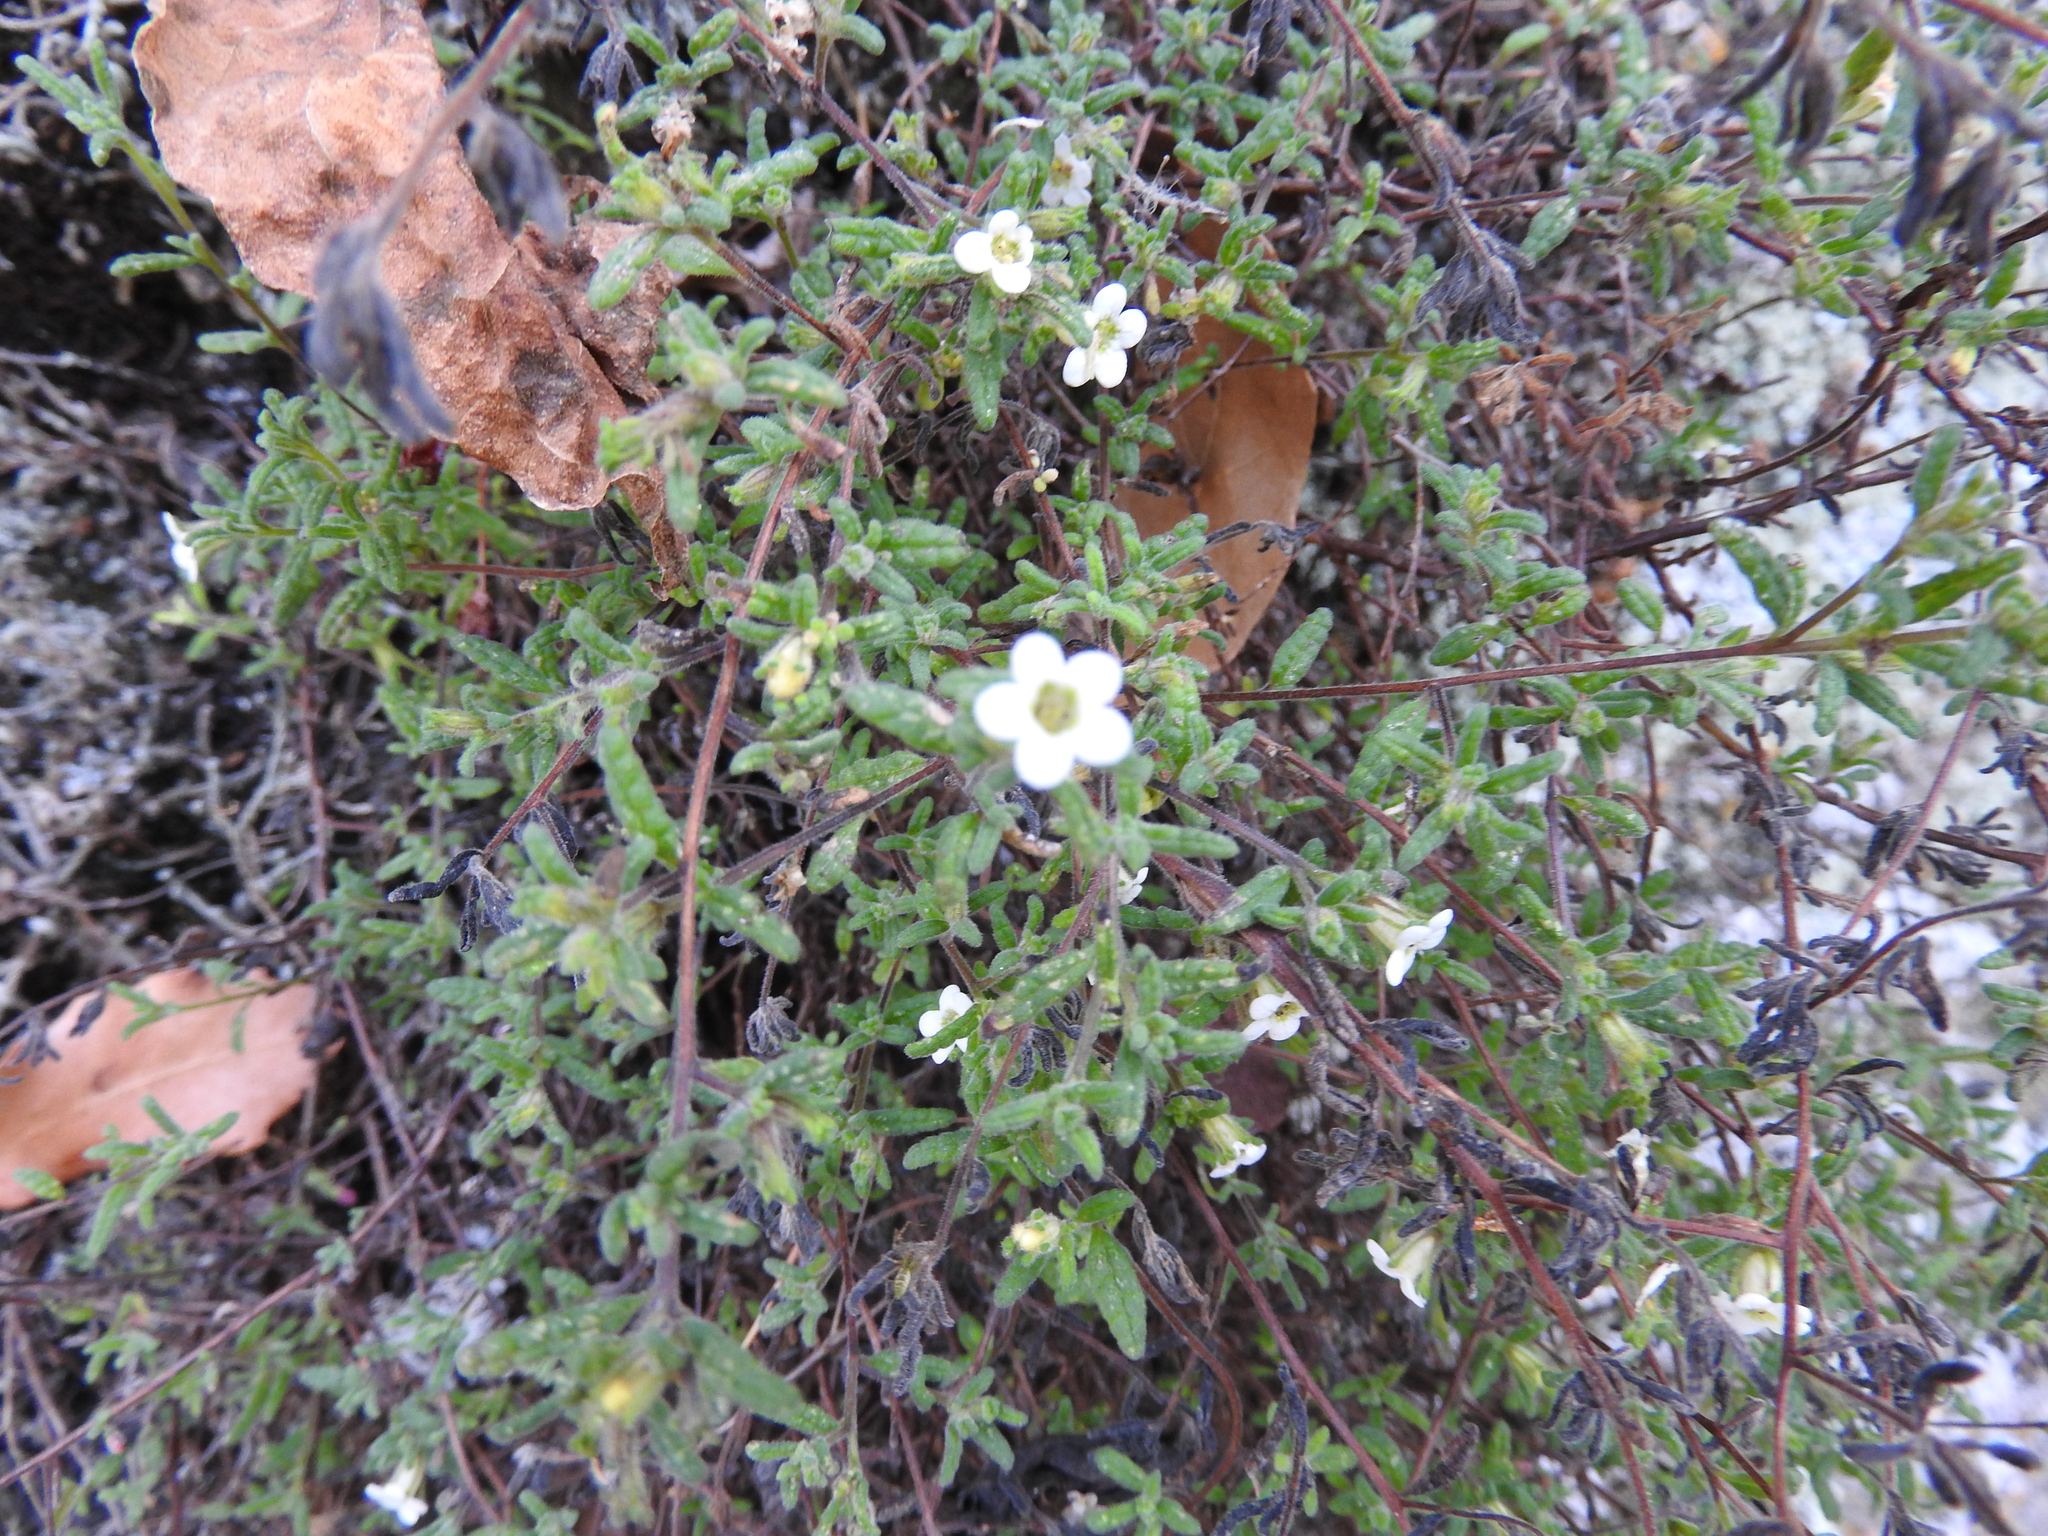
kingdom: Plantae
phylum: Tracheophyta
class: Magnoliopsida
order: Boraginales
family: Namaceae
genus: Nama
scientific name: Nama hispida
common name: Bristly nama
